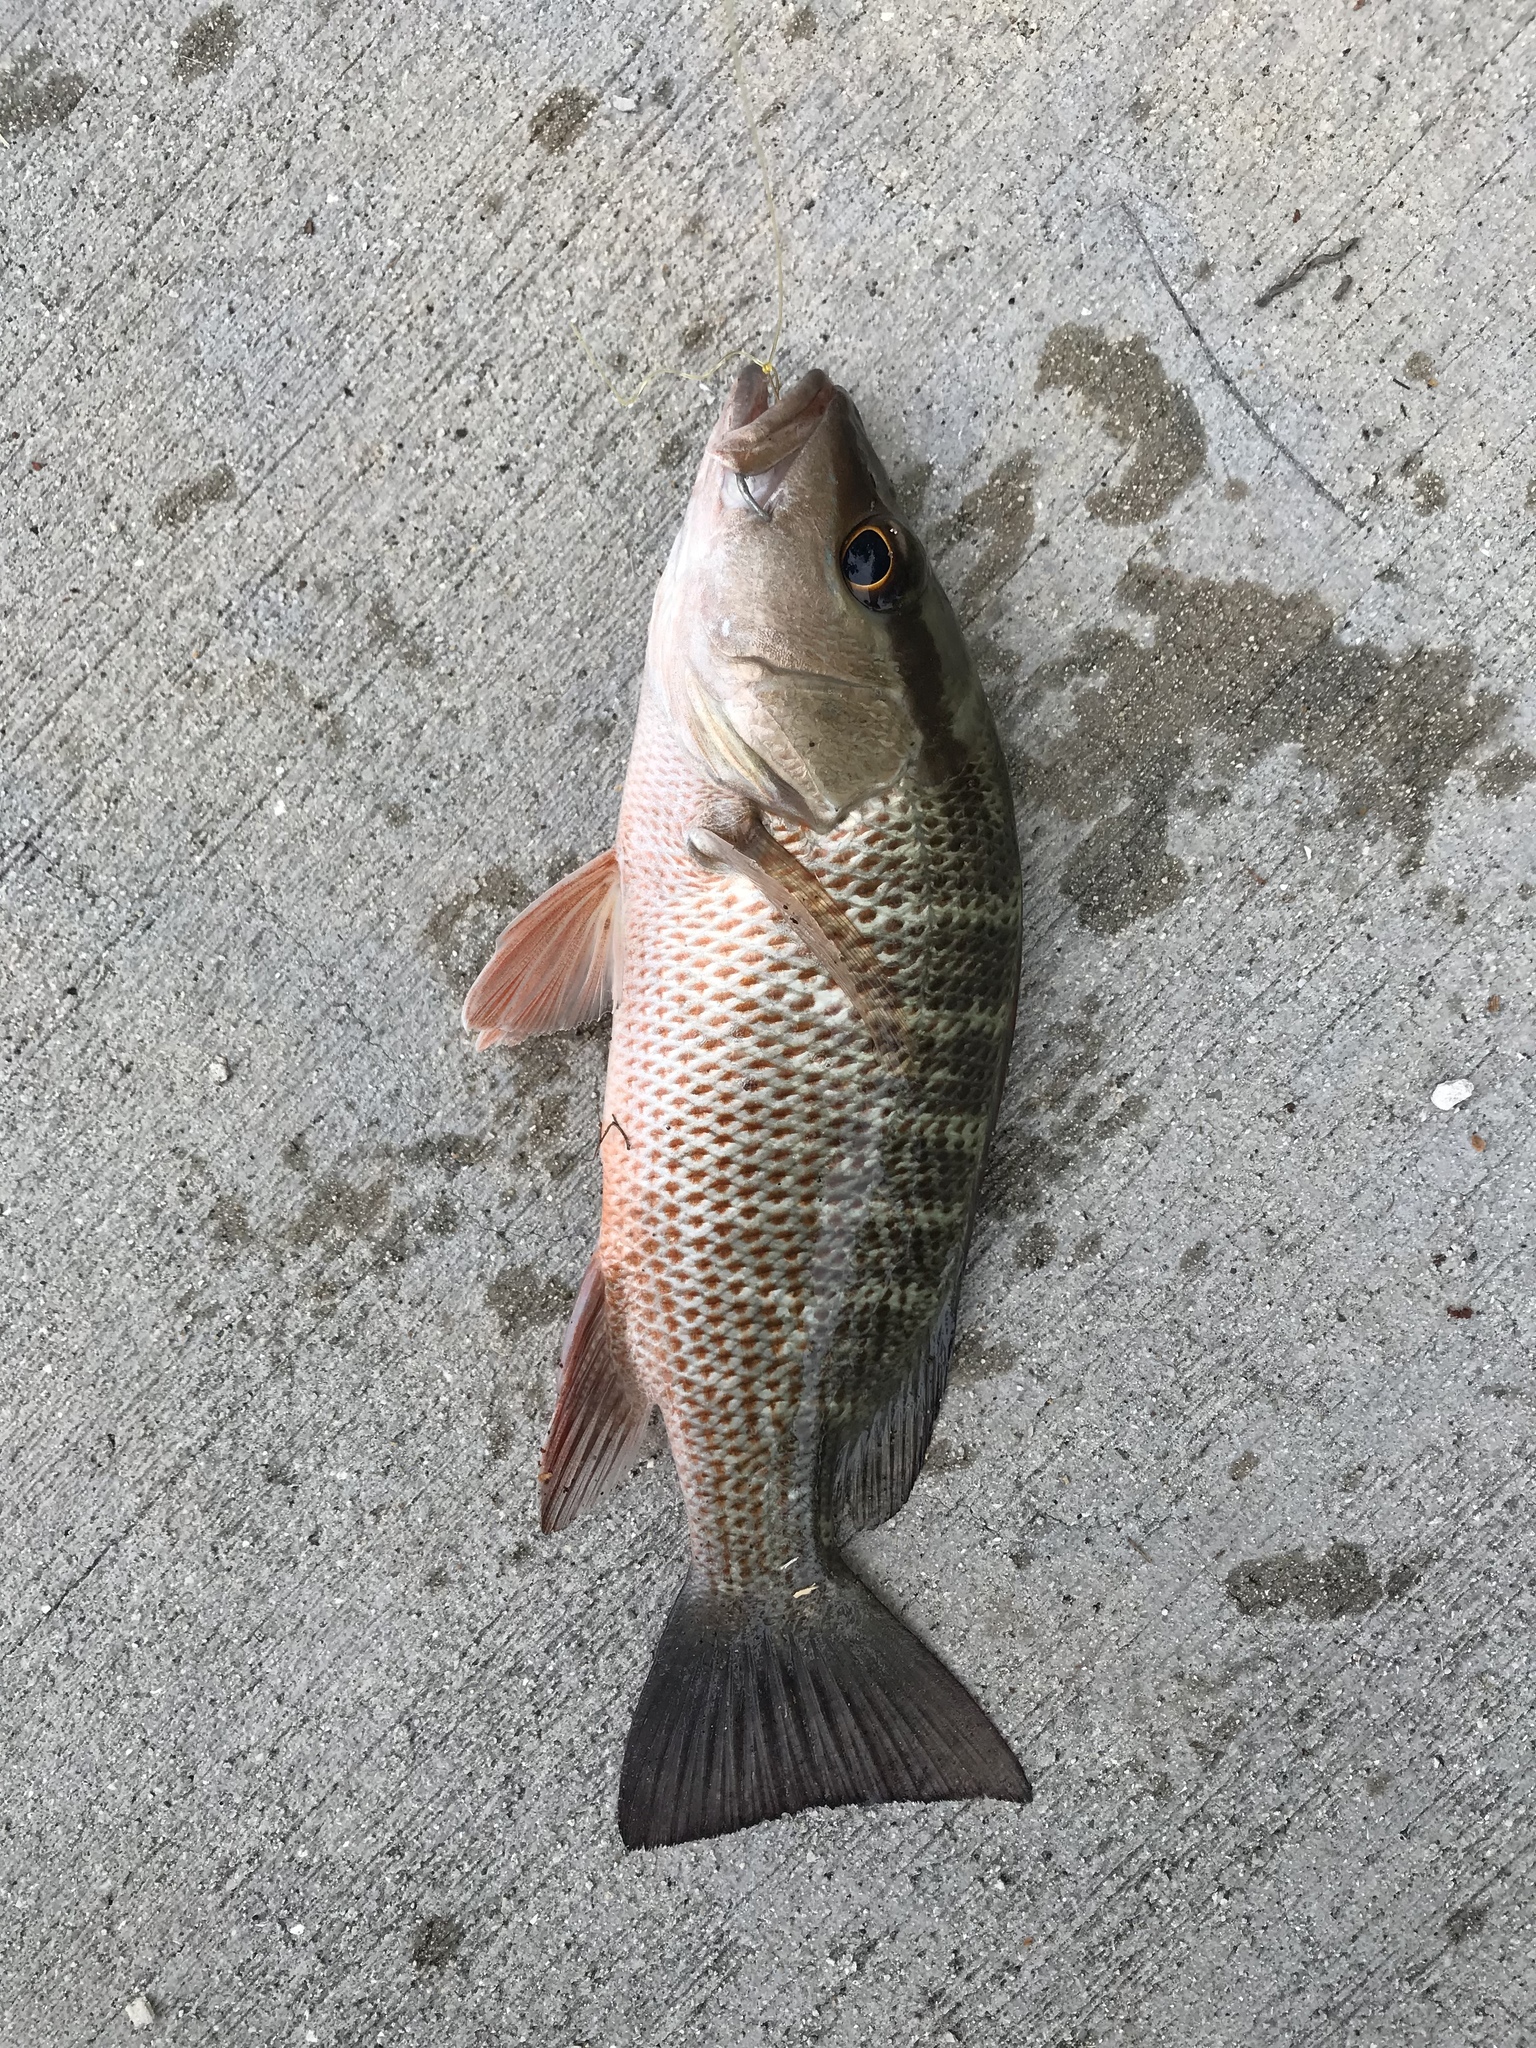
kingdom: Animalia
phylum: Chordata
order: Perciformes
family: Lutjanidae
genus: Lutjanus
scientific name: Lutjanus griseus
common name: Gray snapper
